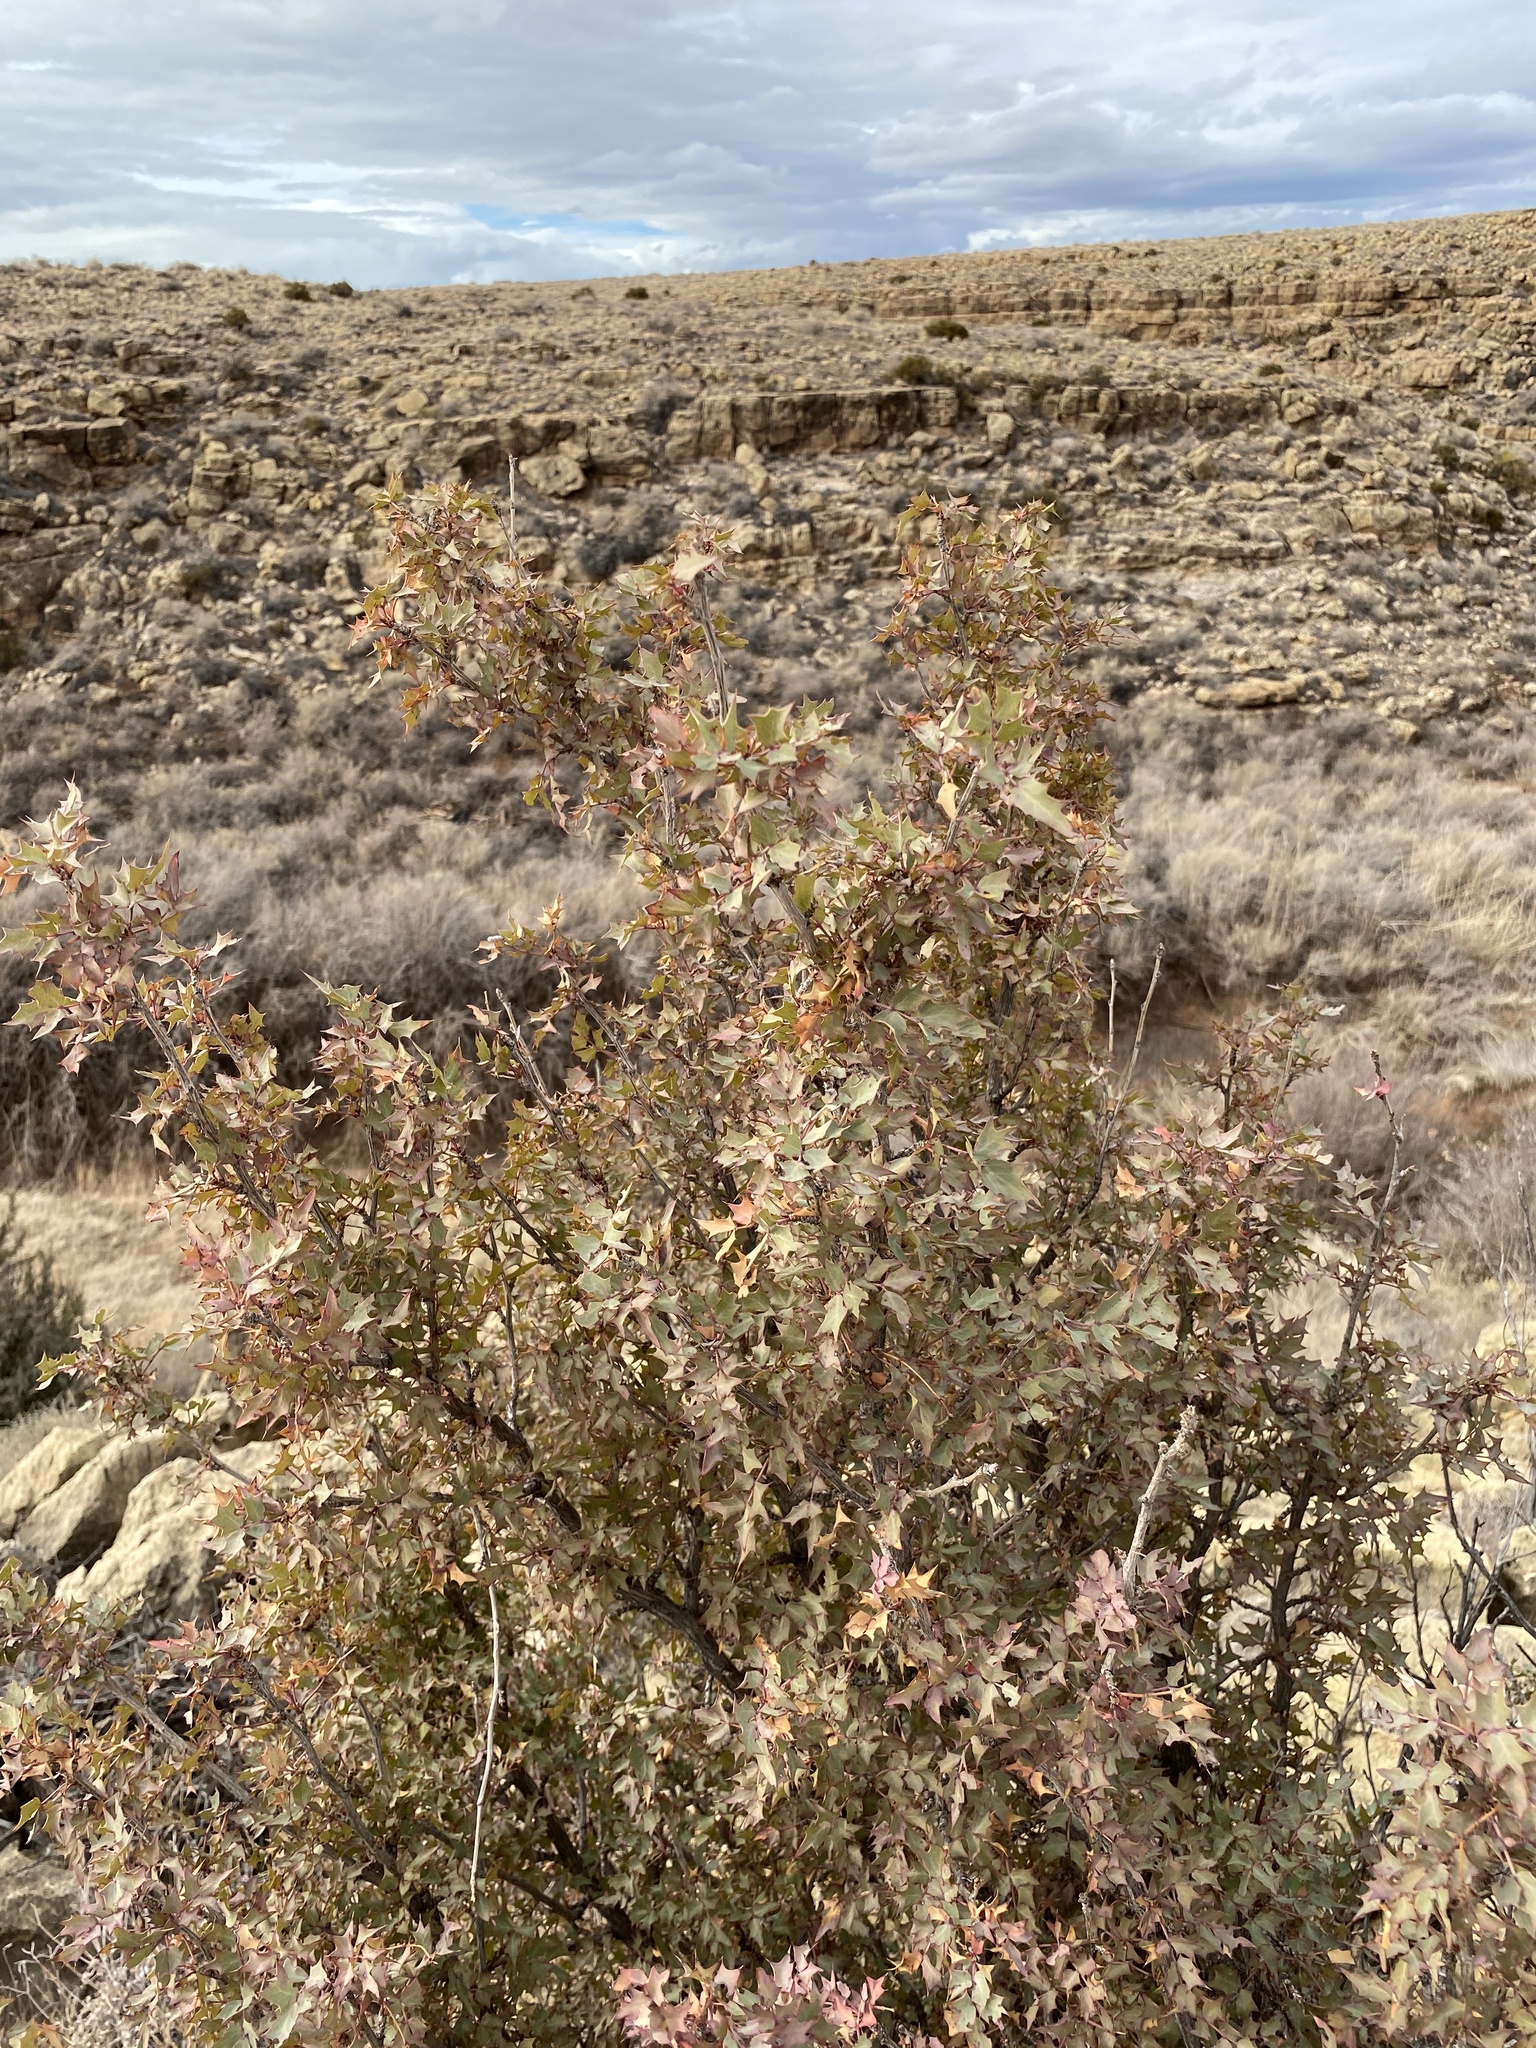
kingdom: Plantae
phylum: Tracheophyta
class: Magnoliopsida
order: Ranunculales
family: Berberidaceae
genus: Alloberberis
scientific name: Alloberberis haematocarpa
